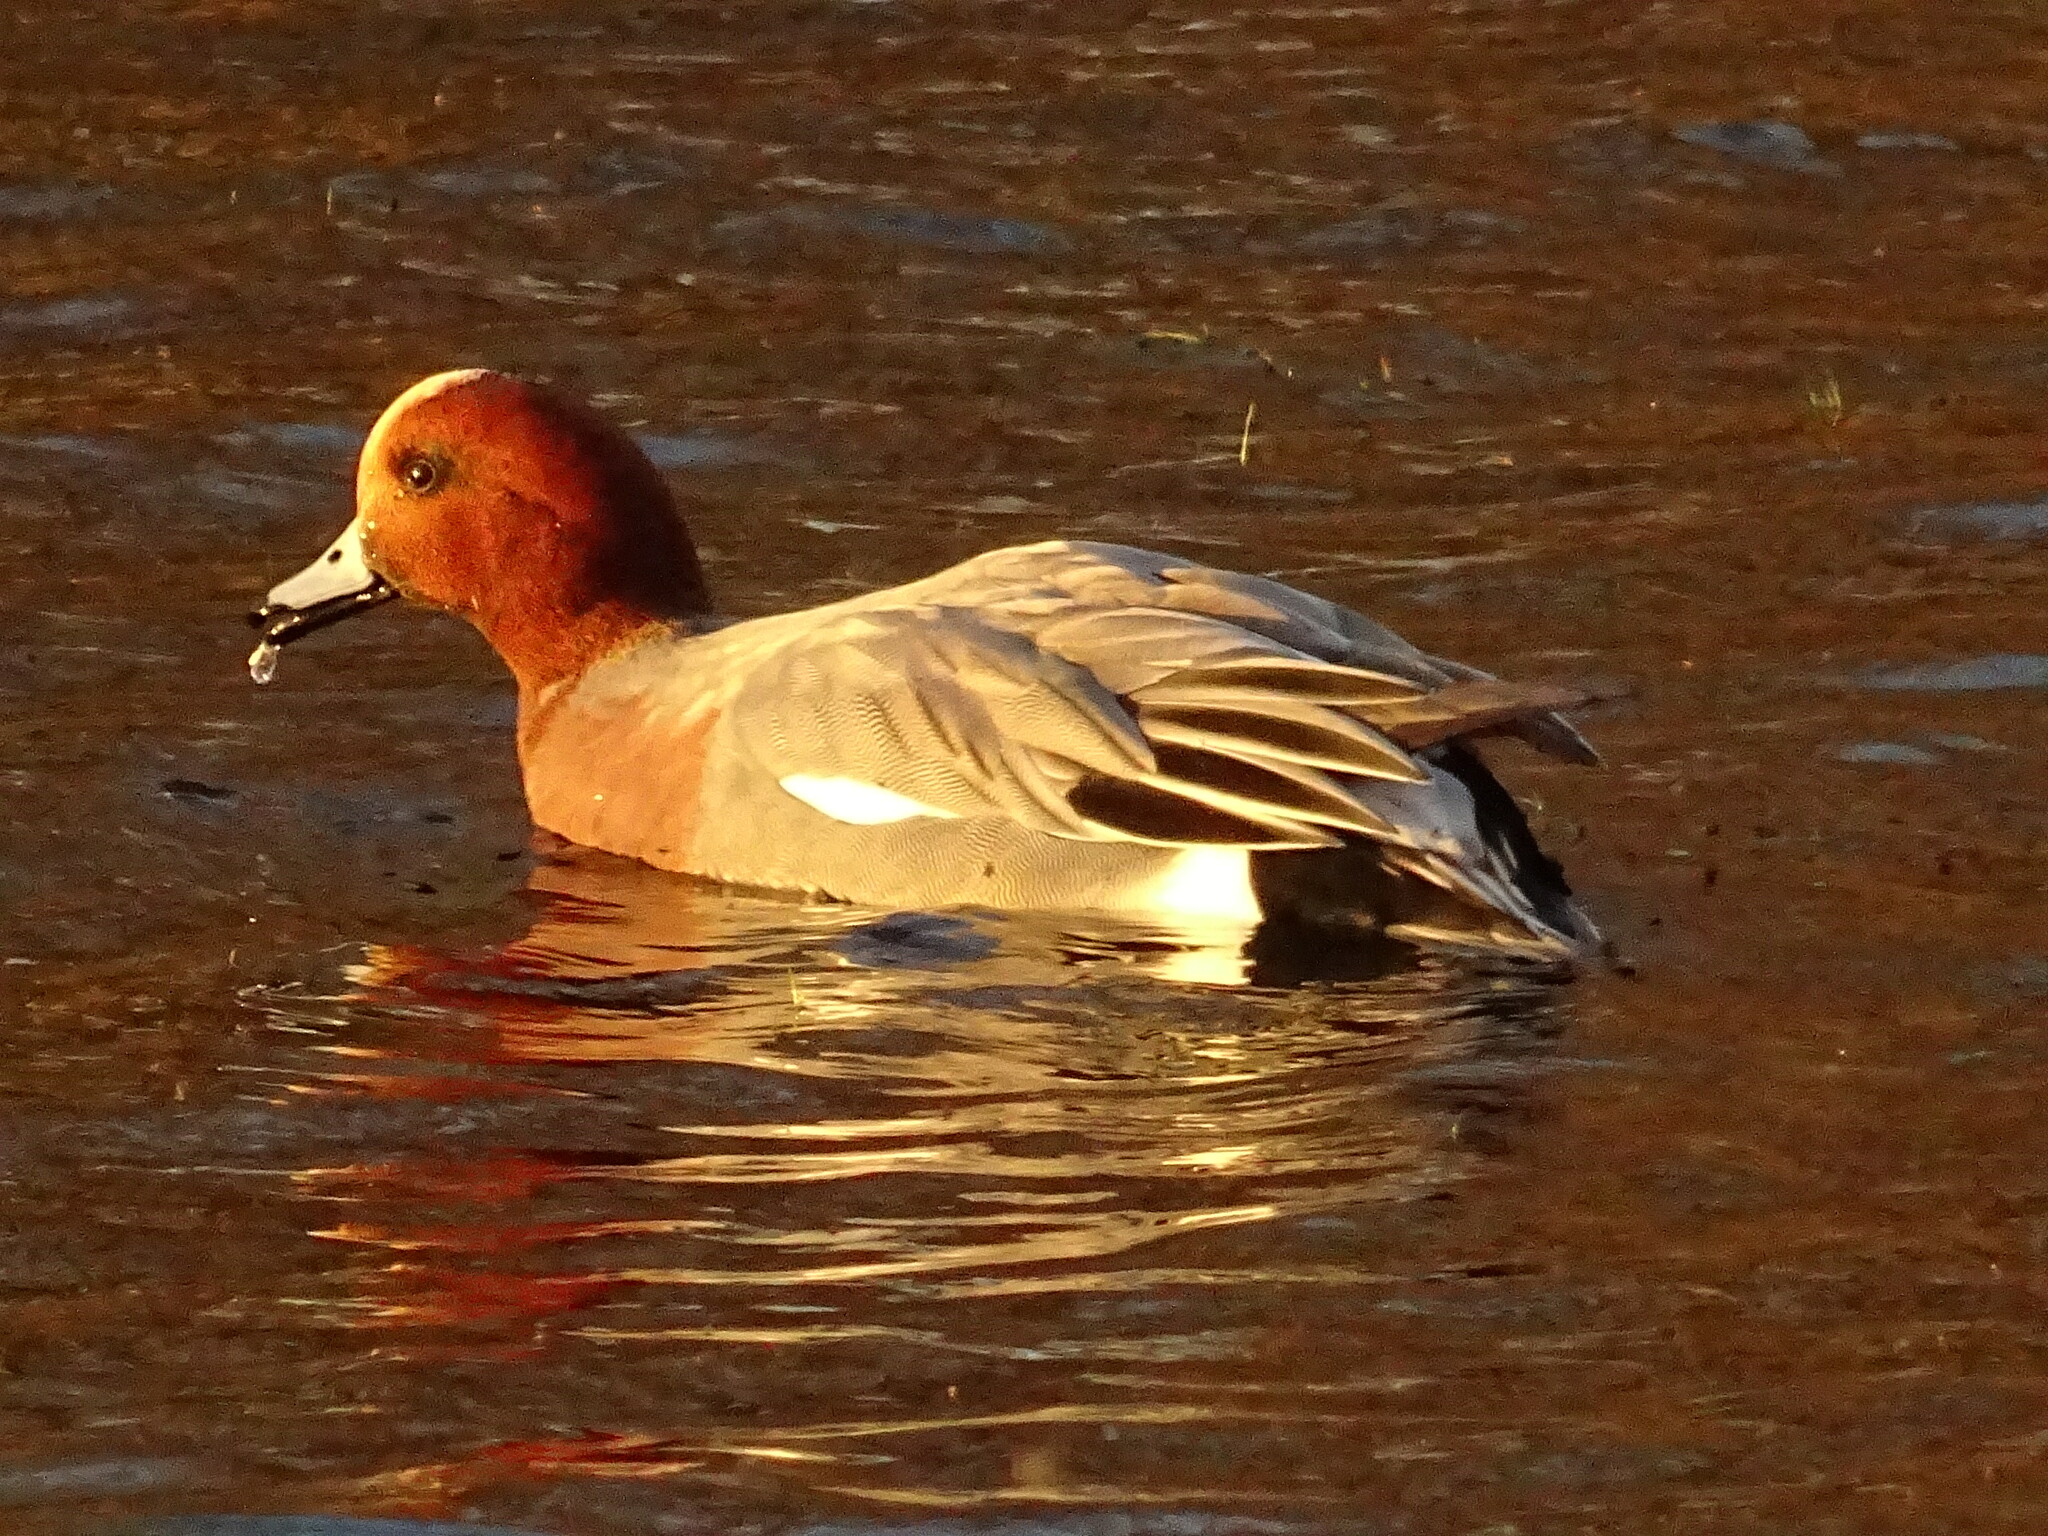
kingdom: Animalia
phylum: Chordata
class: Aves
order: Anseriformes
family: Anatidae
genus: Mareca
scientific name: Mareca penelope
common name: Eurasian wigeon
